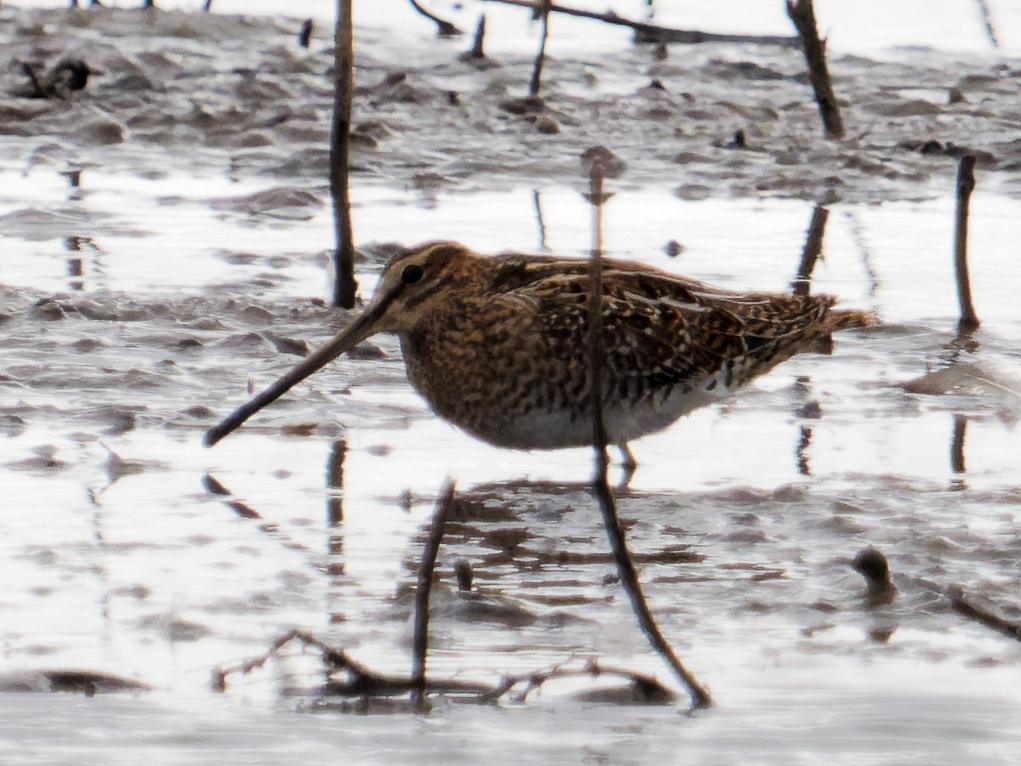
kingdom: Animalia
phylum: Chordata
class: Aves
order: Charadriiformes
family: Scolopacidae
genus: Gallinago
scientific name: Gallinago gallinago
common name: Common snipe
